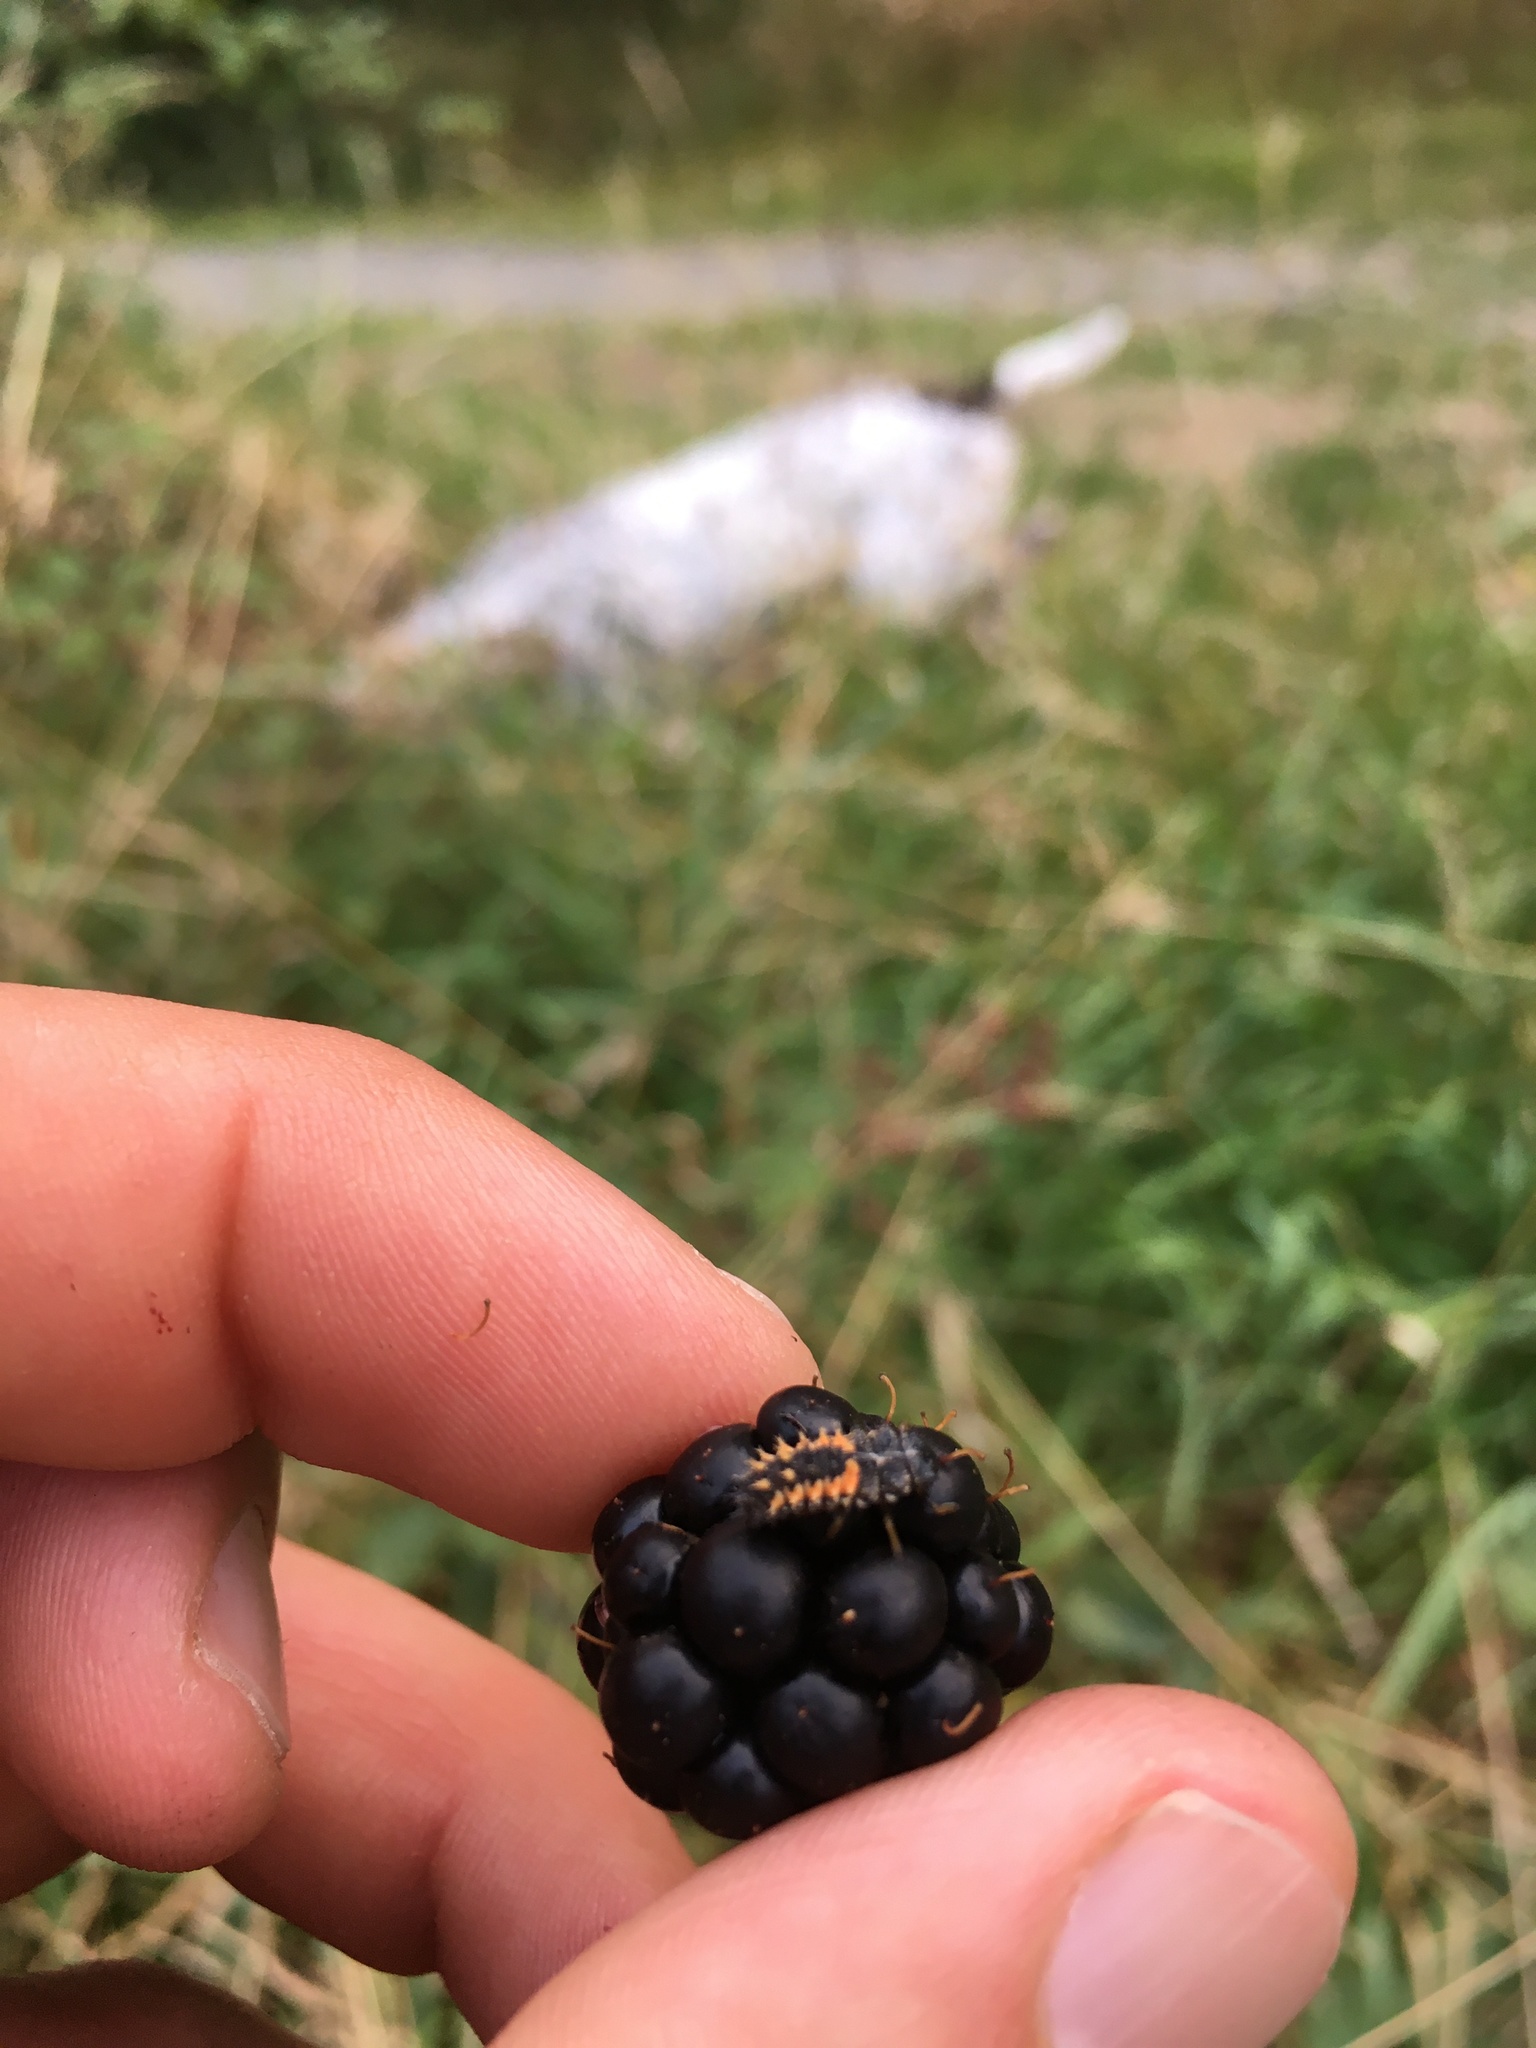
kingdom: Animalia
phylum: Arthropoda
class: Insecta
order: Coleoptera
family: Coccinellidae
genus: Harmonia
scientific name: Harmonia axyridis
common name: Harlequin ladybird
